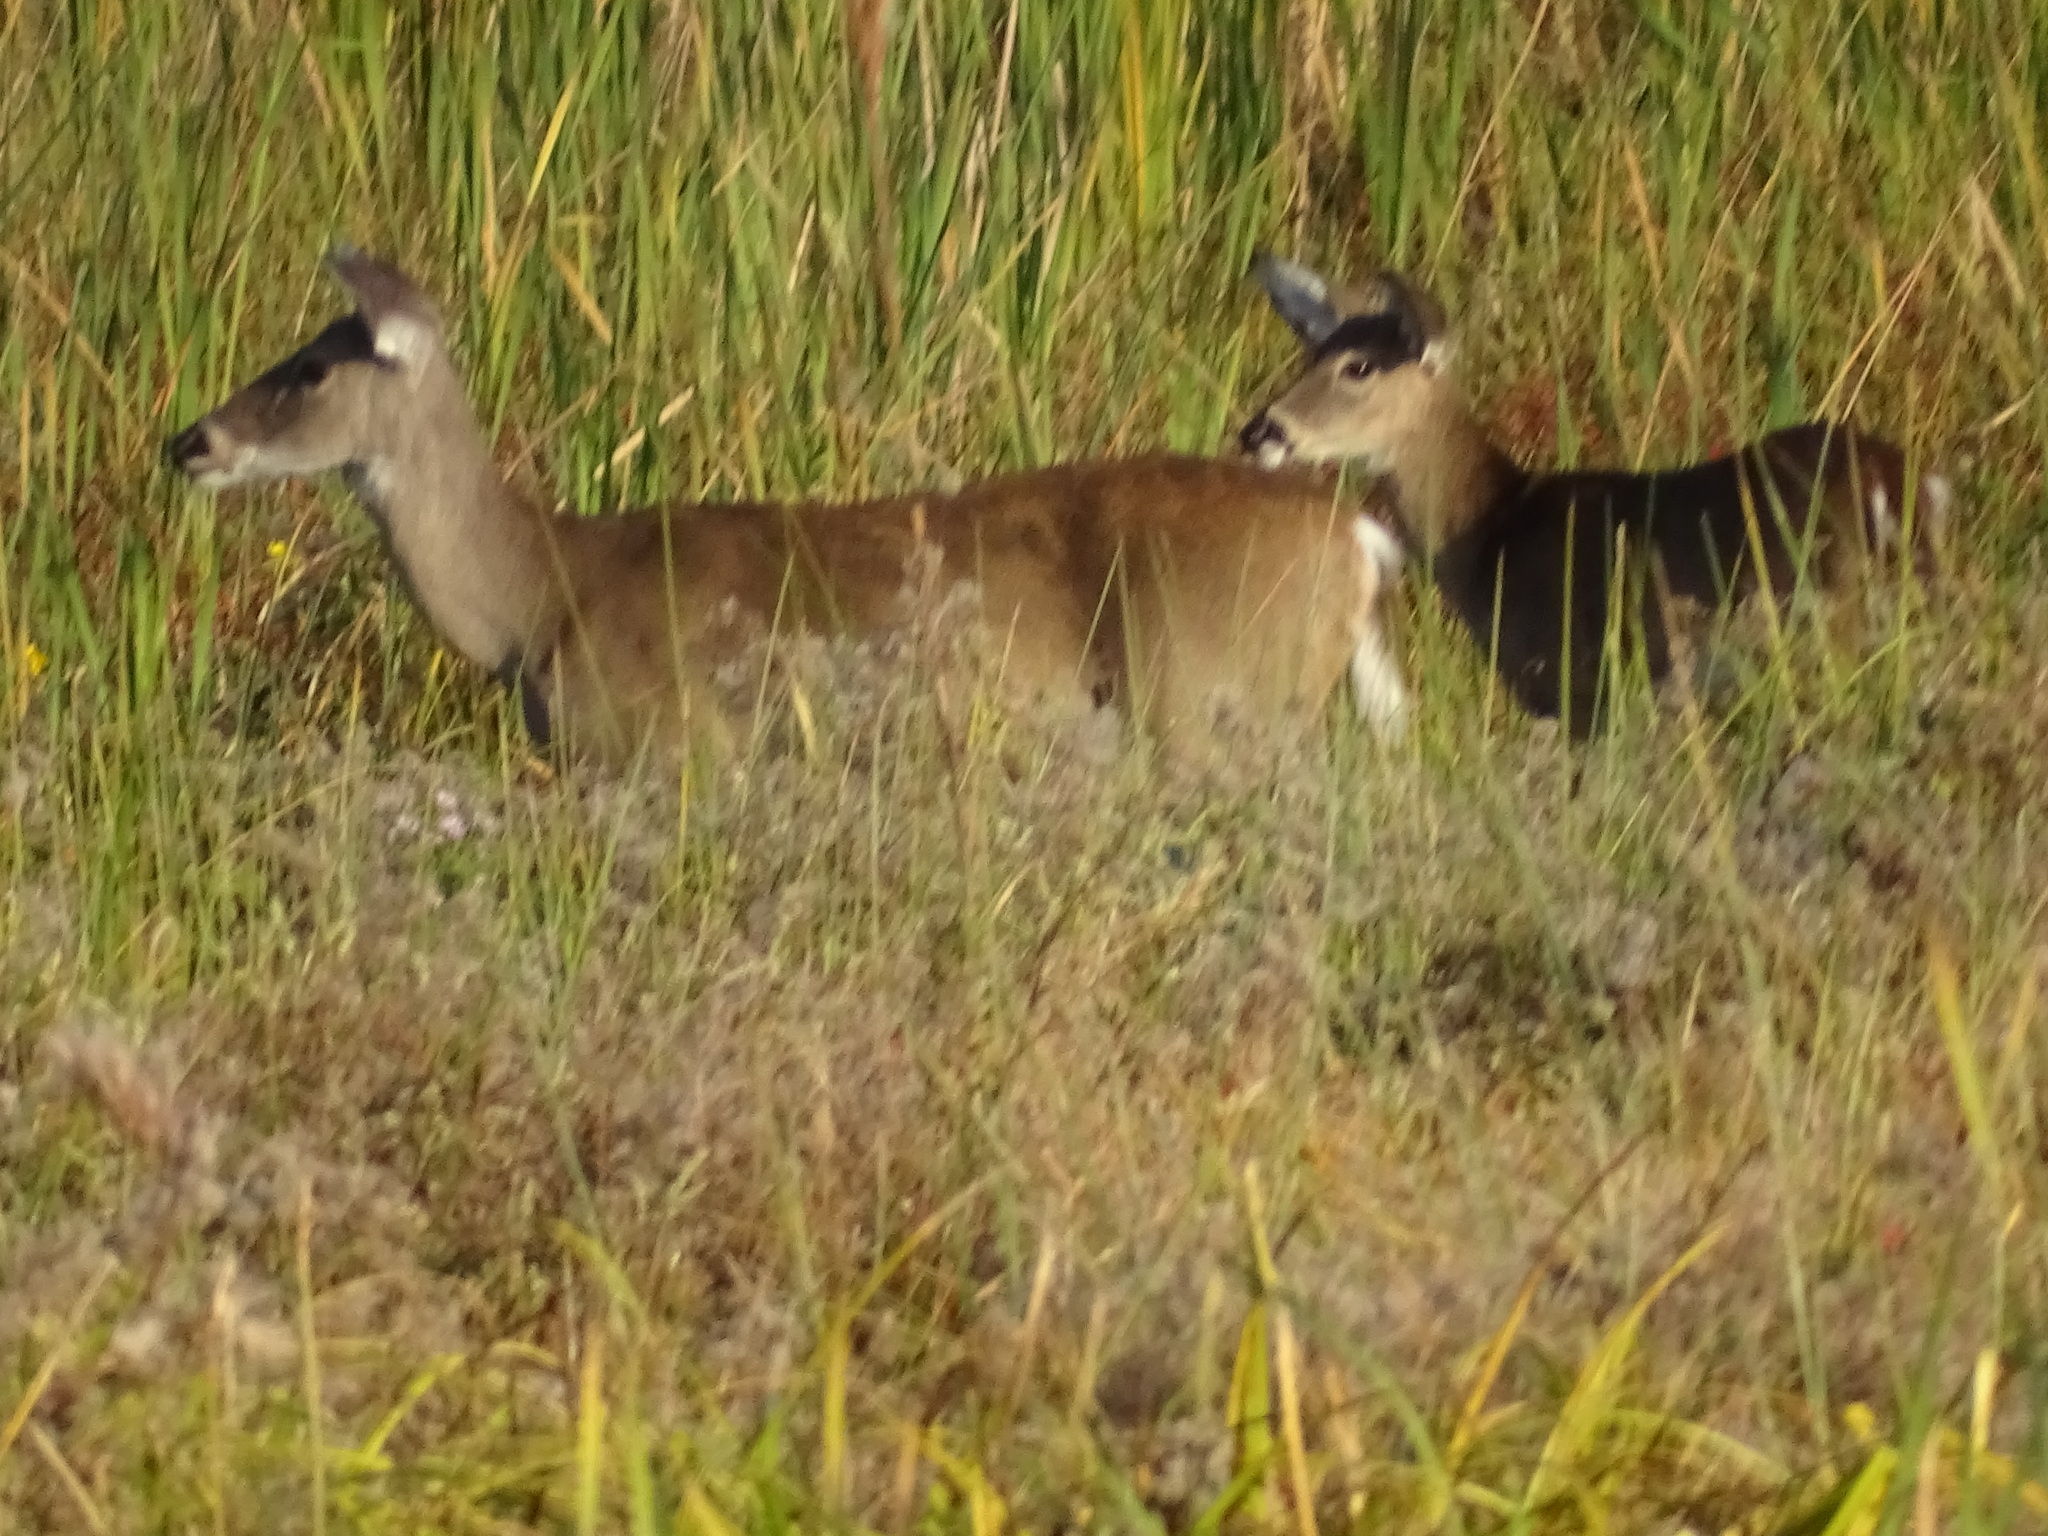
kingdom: Animalia
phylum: Chordata
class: Mammalia
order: Artiodactyla
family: Cervidae
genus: Odocoileus
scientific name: Odocoileus virginianus
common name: White-tailed deer
